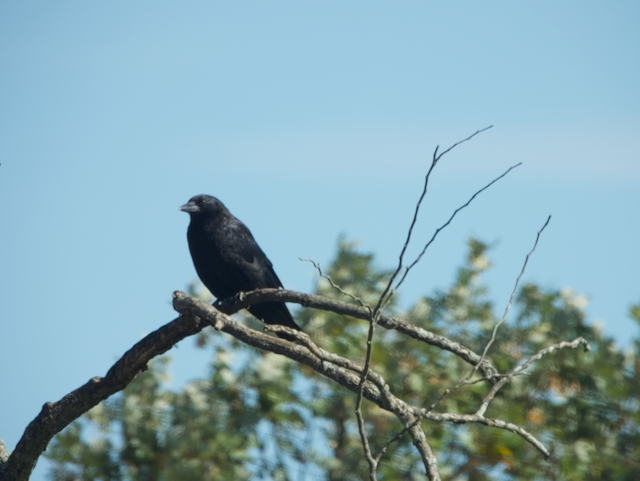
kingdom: Animalia
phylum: Chordata
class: Aves
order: Passeriformes
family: Corvidae
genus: Corvus
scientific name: Corvus brachyrhynchos
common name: American crow
